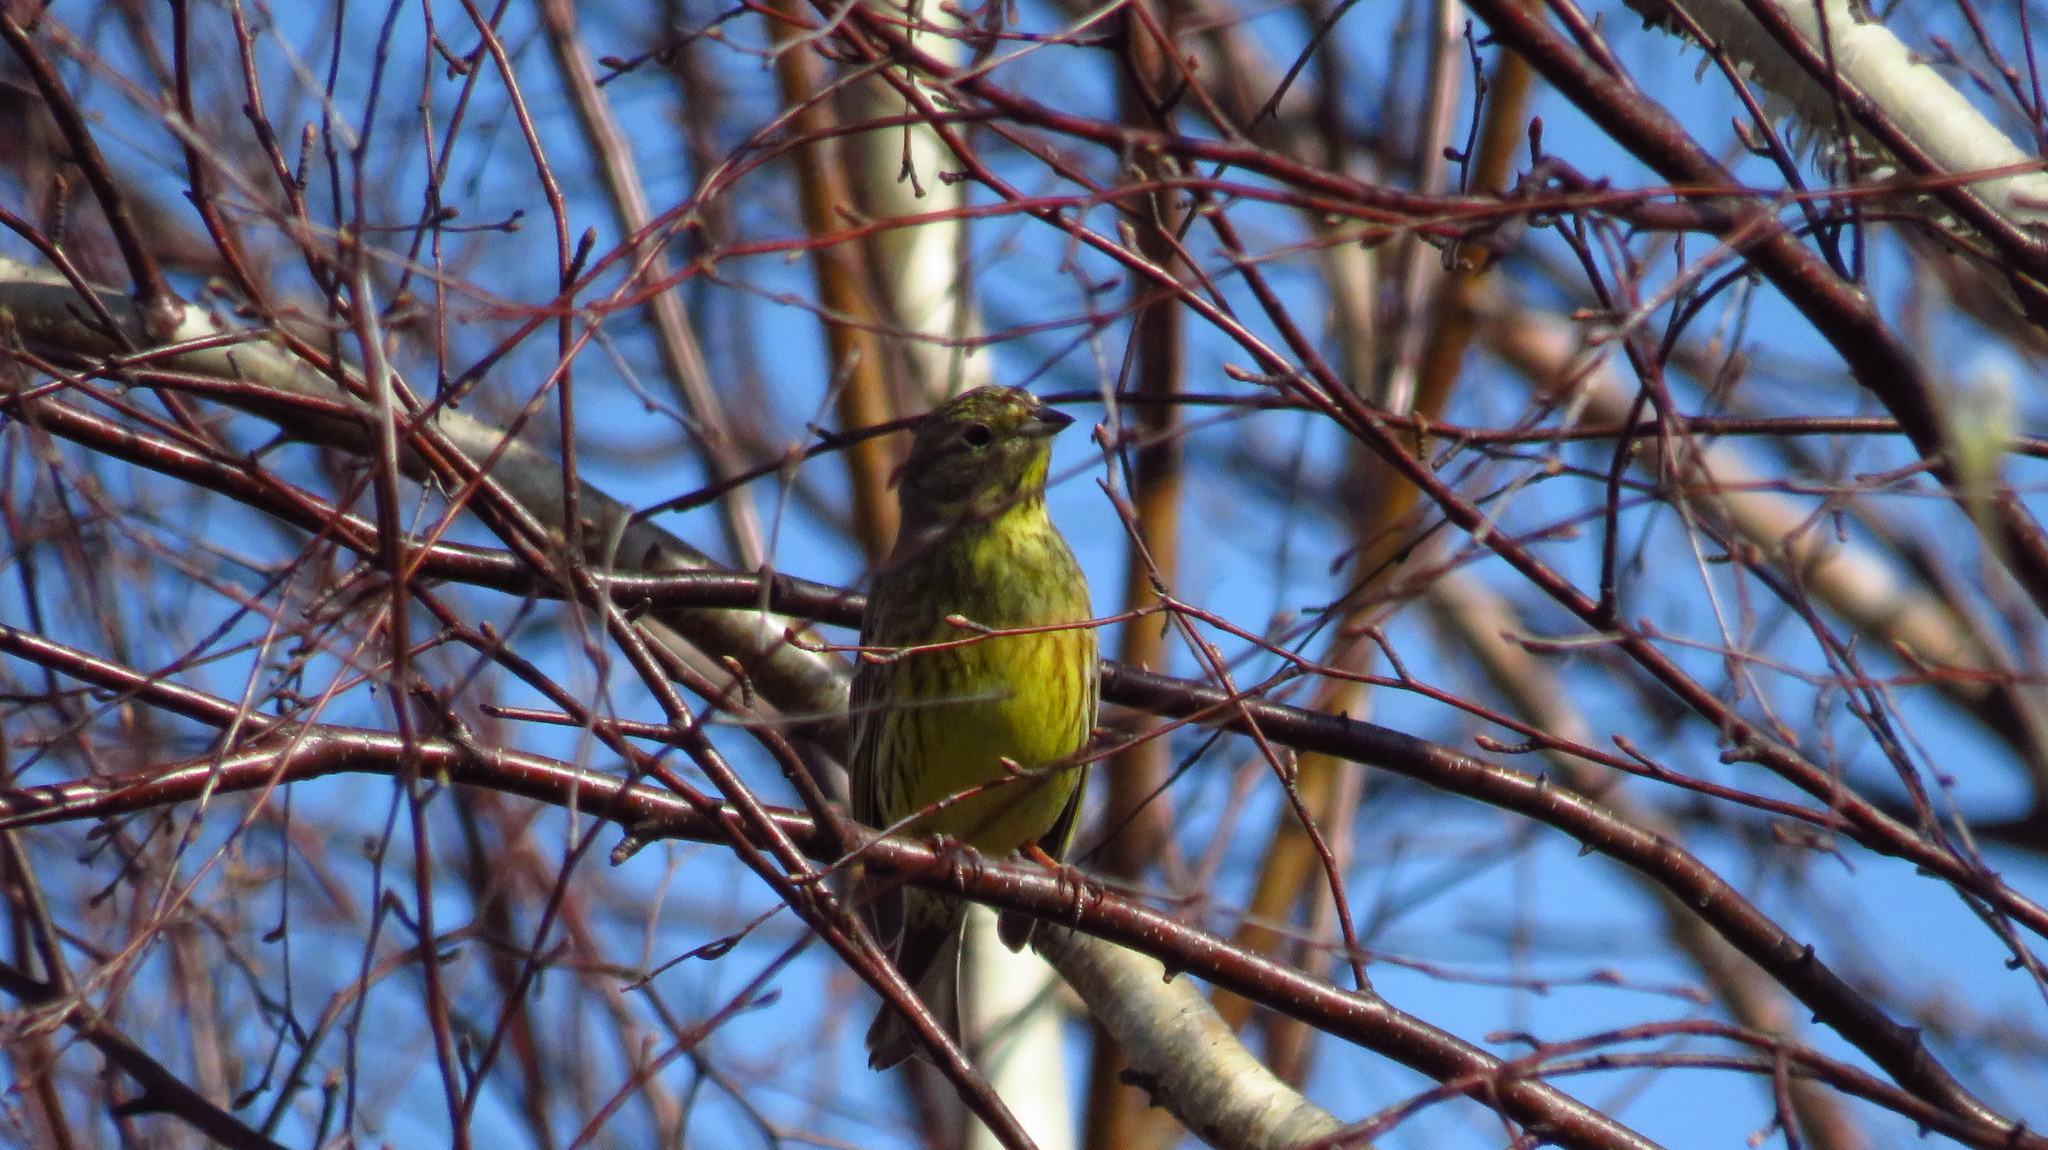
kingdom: Animalia
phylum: Chordata
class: Aves
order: Passeriformes
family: Emberizidae
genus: Emberiza
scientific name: Emberiza citrinella
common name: Yellowhammer
